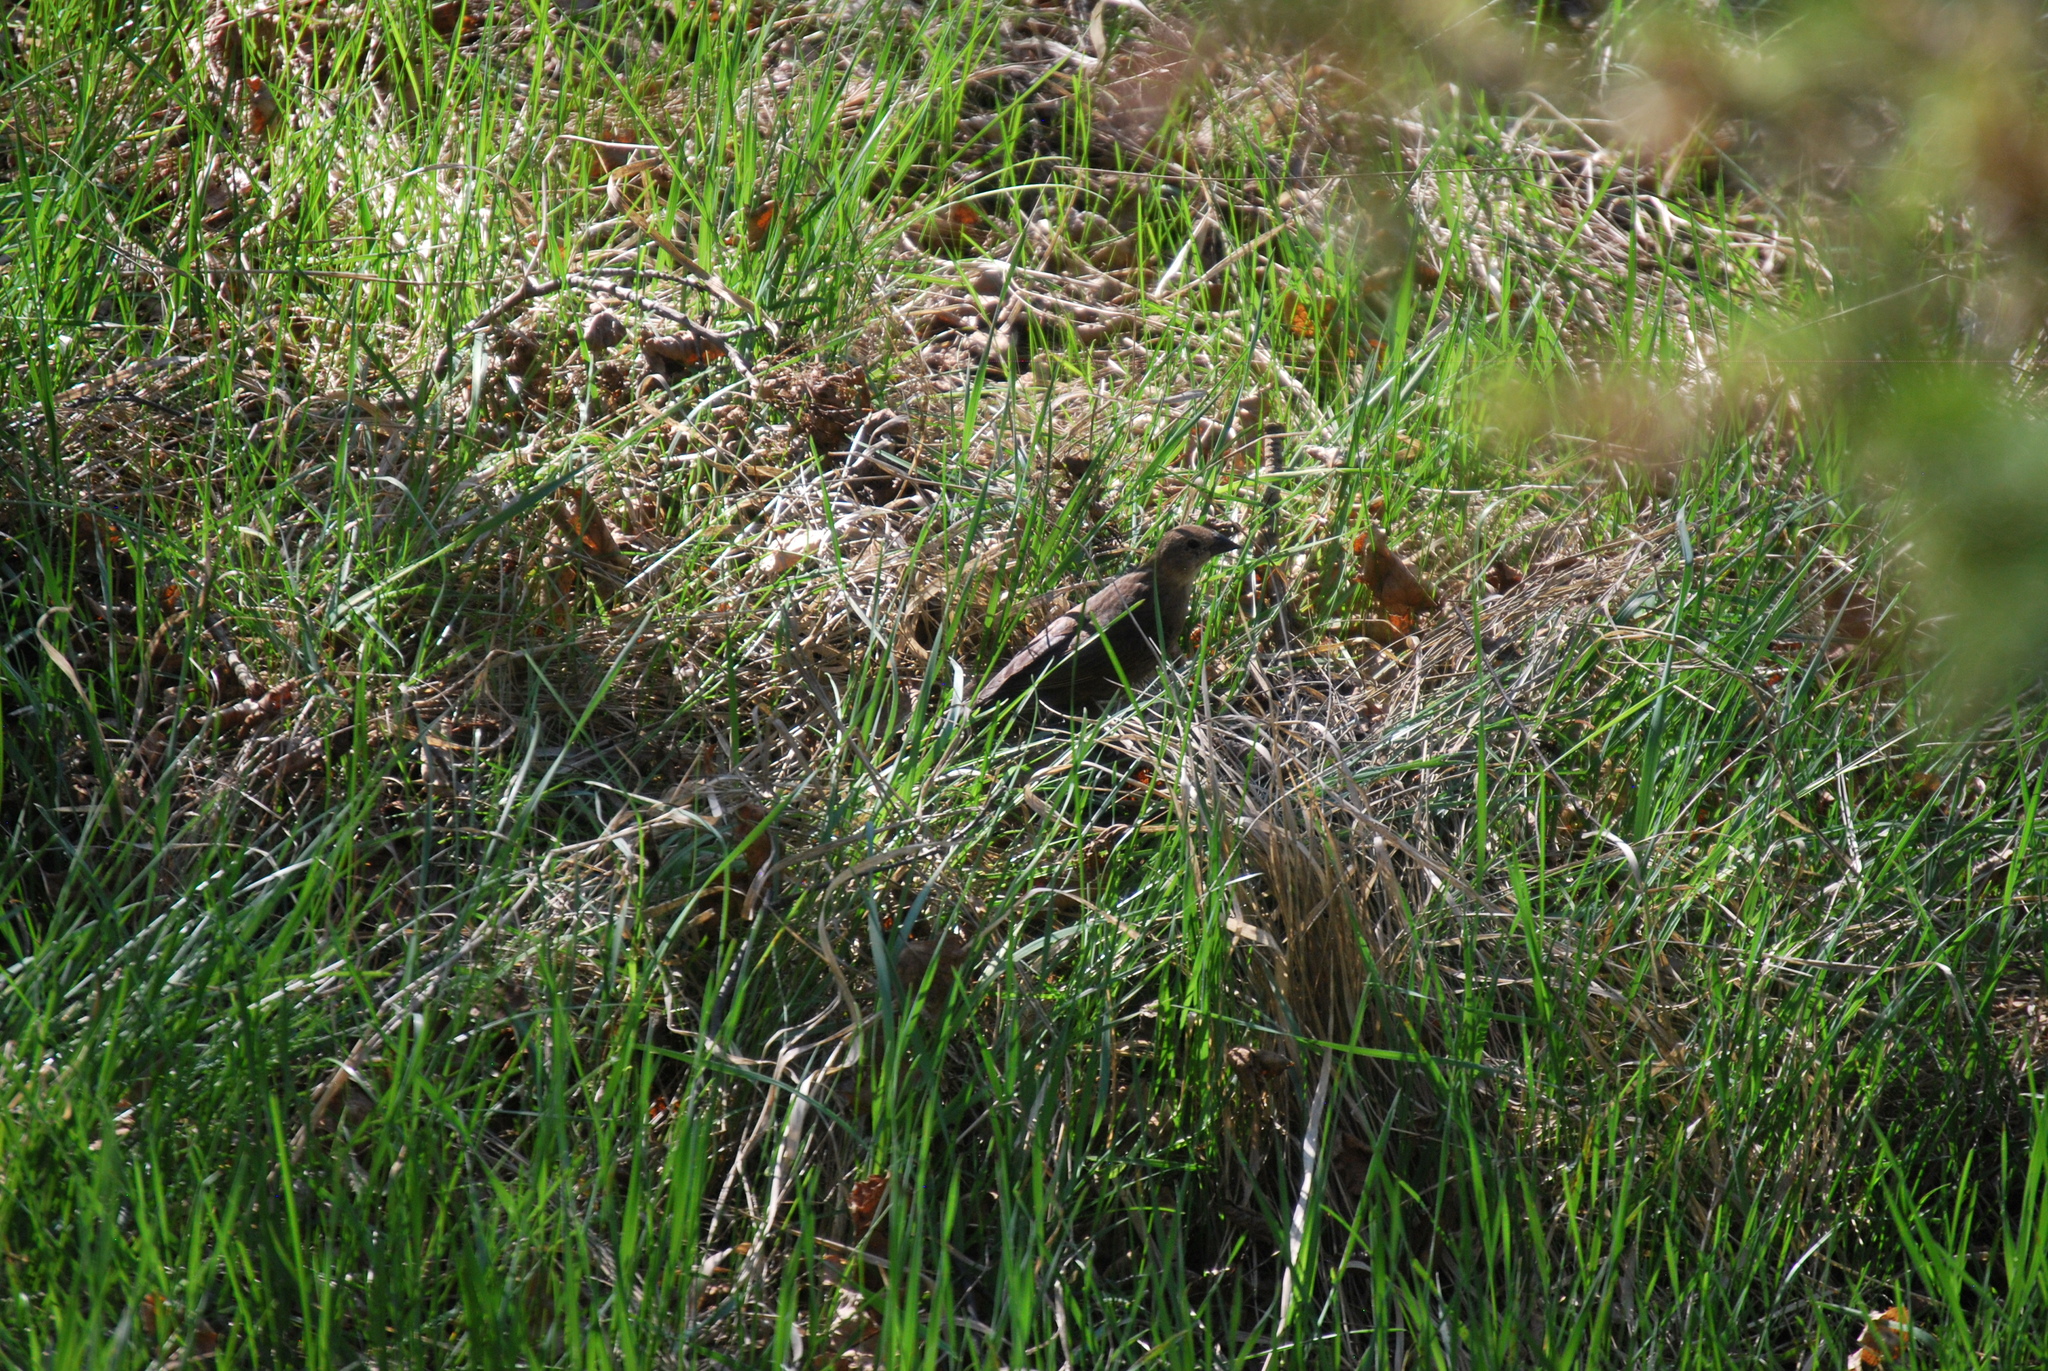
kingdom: Animalia
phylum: Chordata
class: Aves
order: Passeriformes
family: Icteridae
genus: Molothrus
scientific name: Molothrus ater
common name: Brown-headed cowbird
